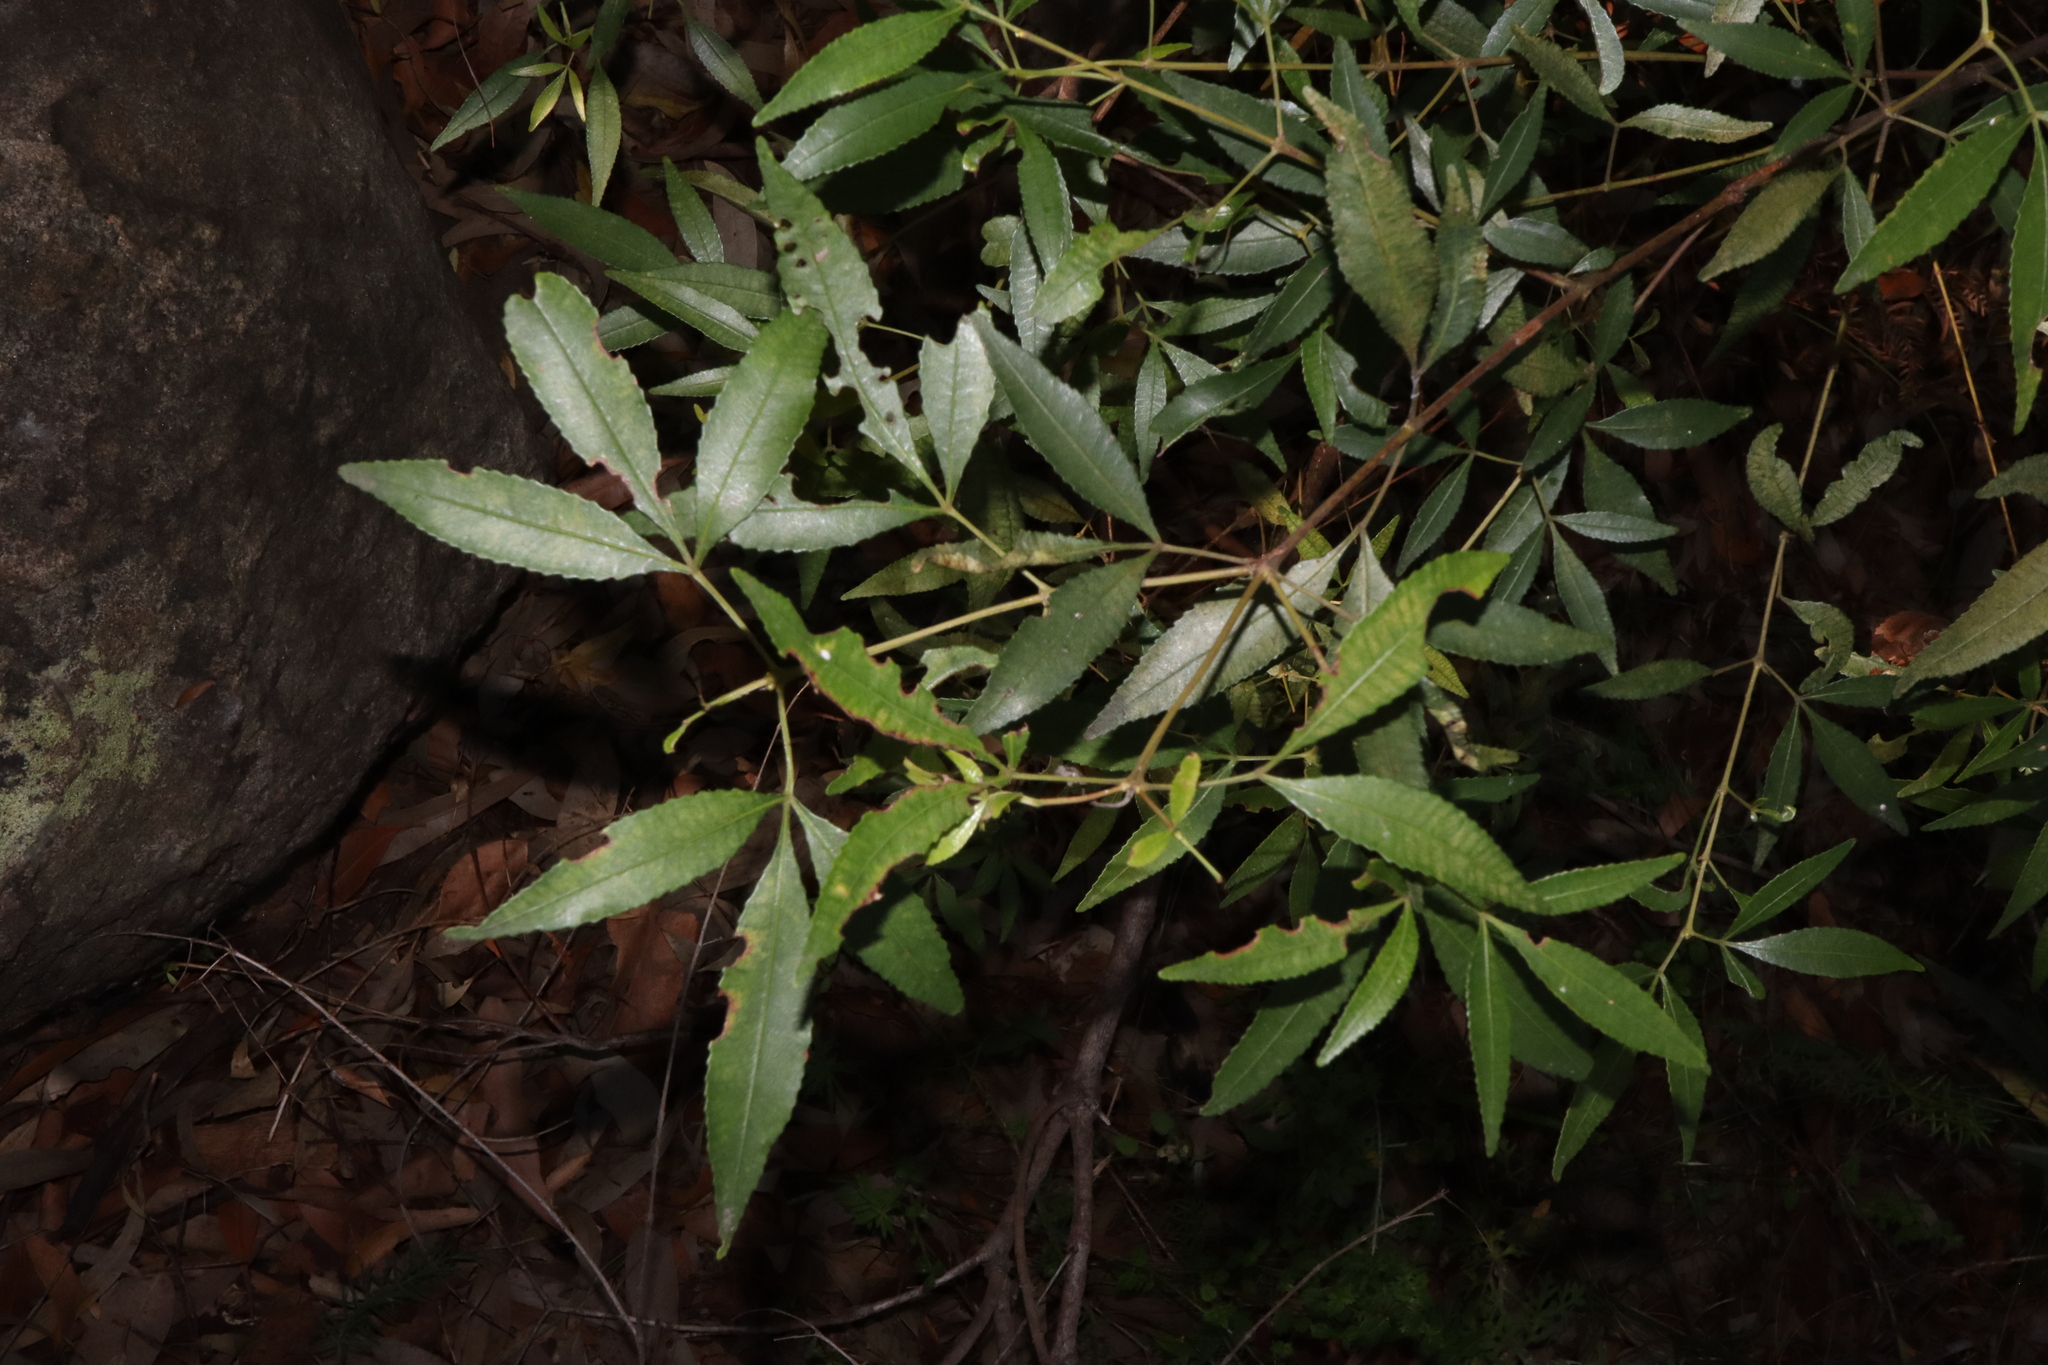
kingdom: Plantae
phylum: Tracheophyta
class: Magnoliopsida
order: Oxalidales
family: Cunoniaceae
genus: Ceratopetalum
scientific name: Ceratopetalum gummiferum
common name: Christmasbush
